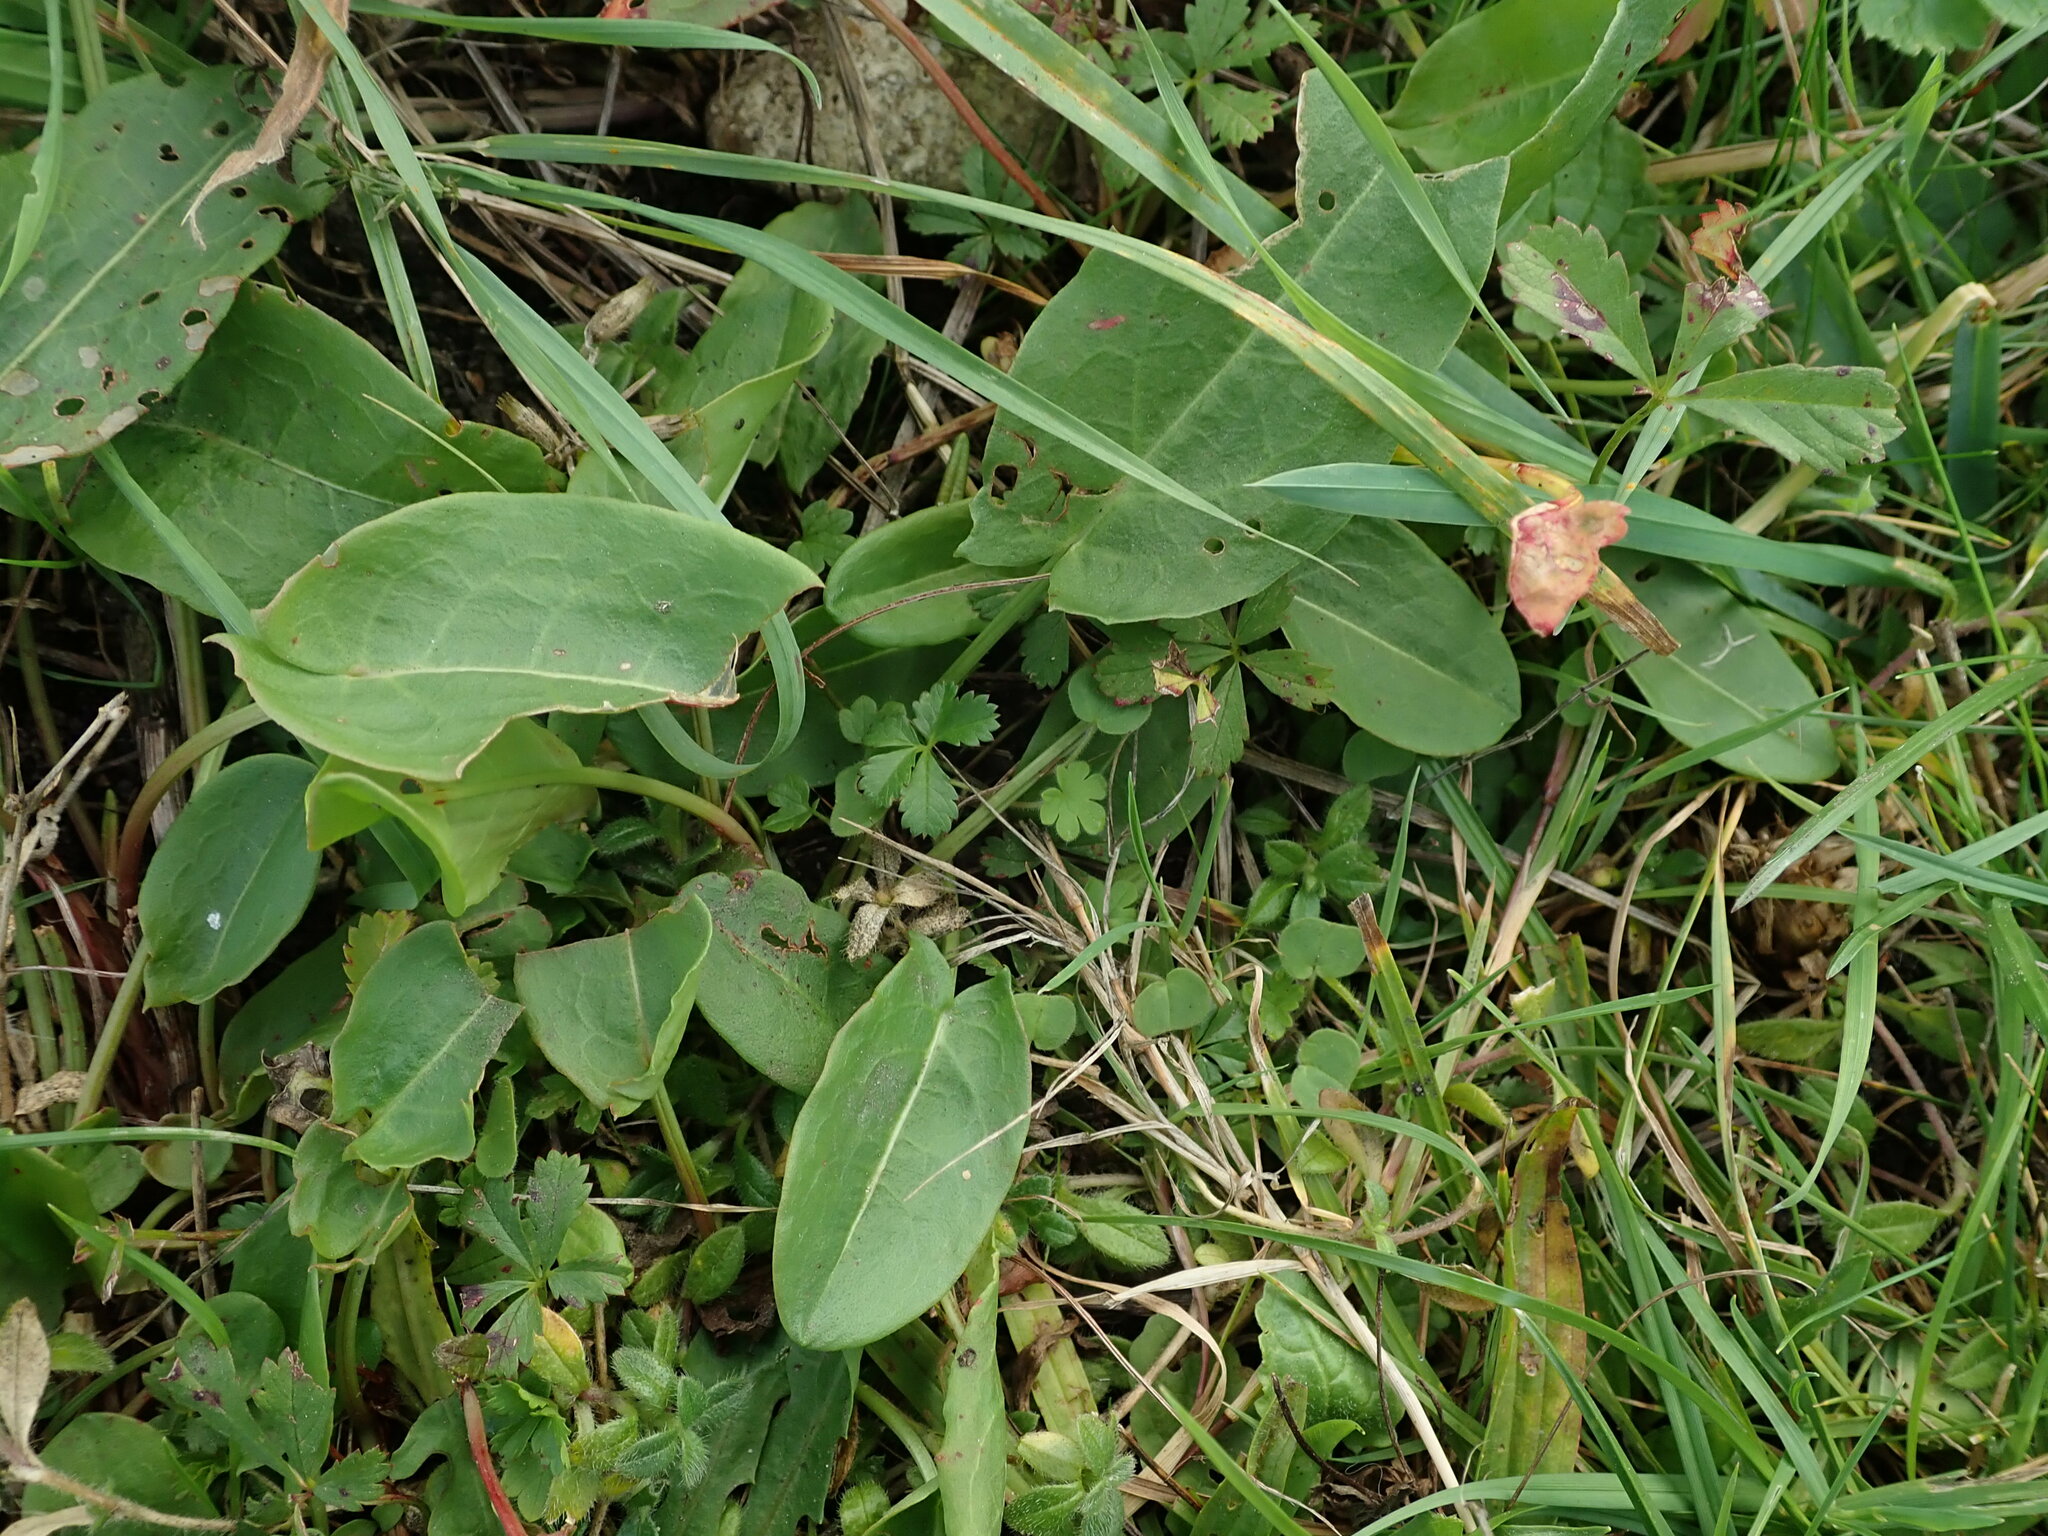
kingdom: Plantae
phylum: Tracheophyta
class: Magnoliopsida
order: Caryophyllales
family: Polygonaceae
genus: Rumex
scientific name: Rumex acetosa
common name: Garden sorrel
